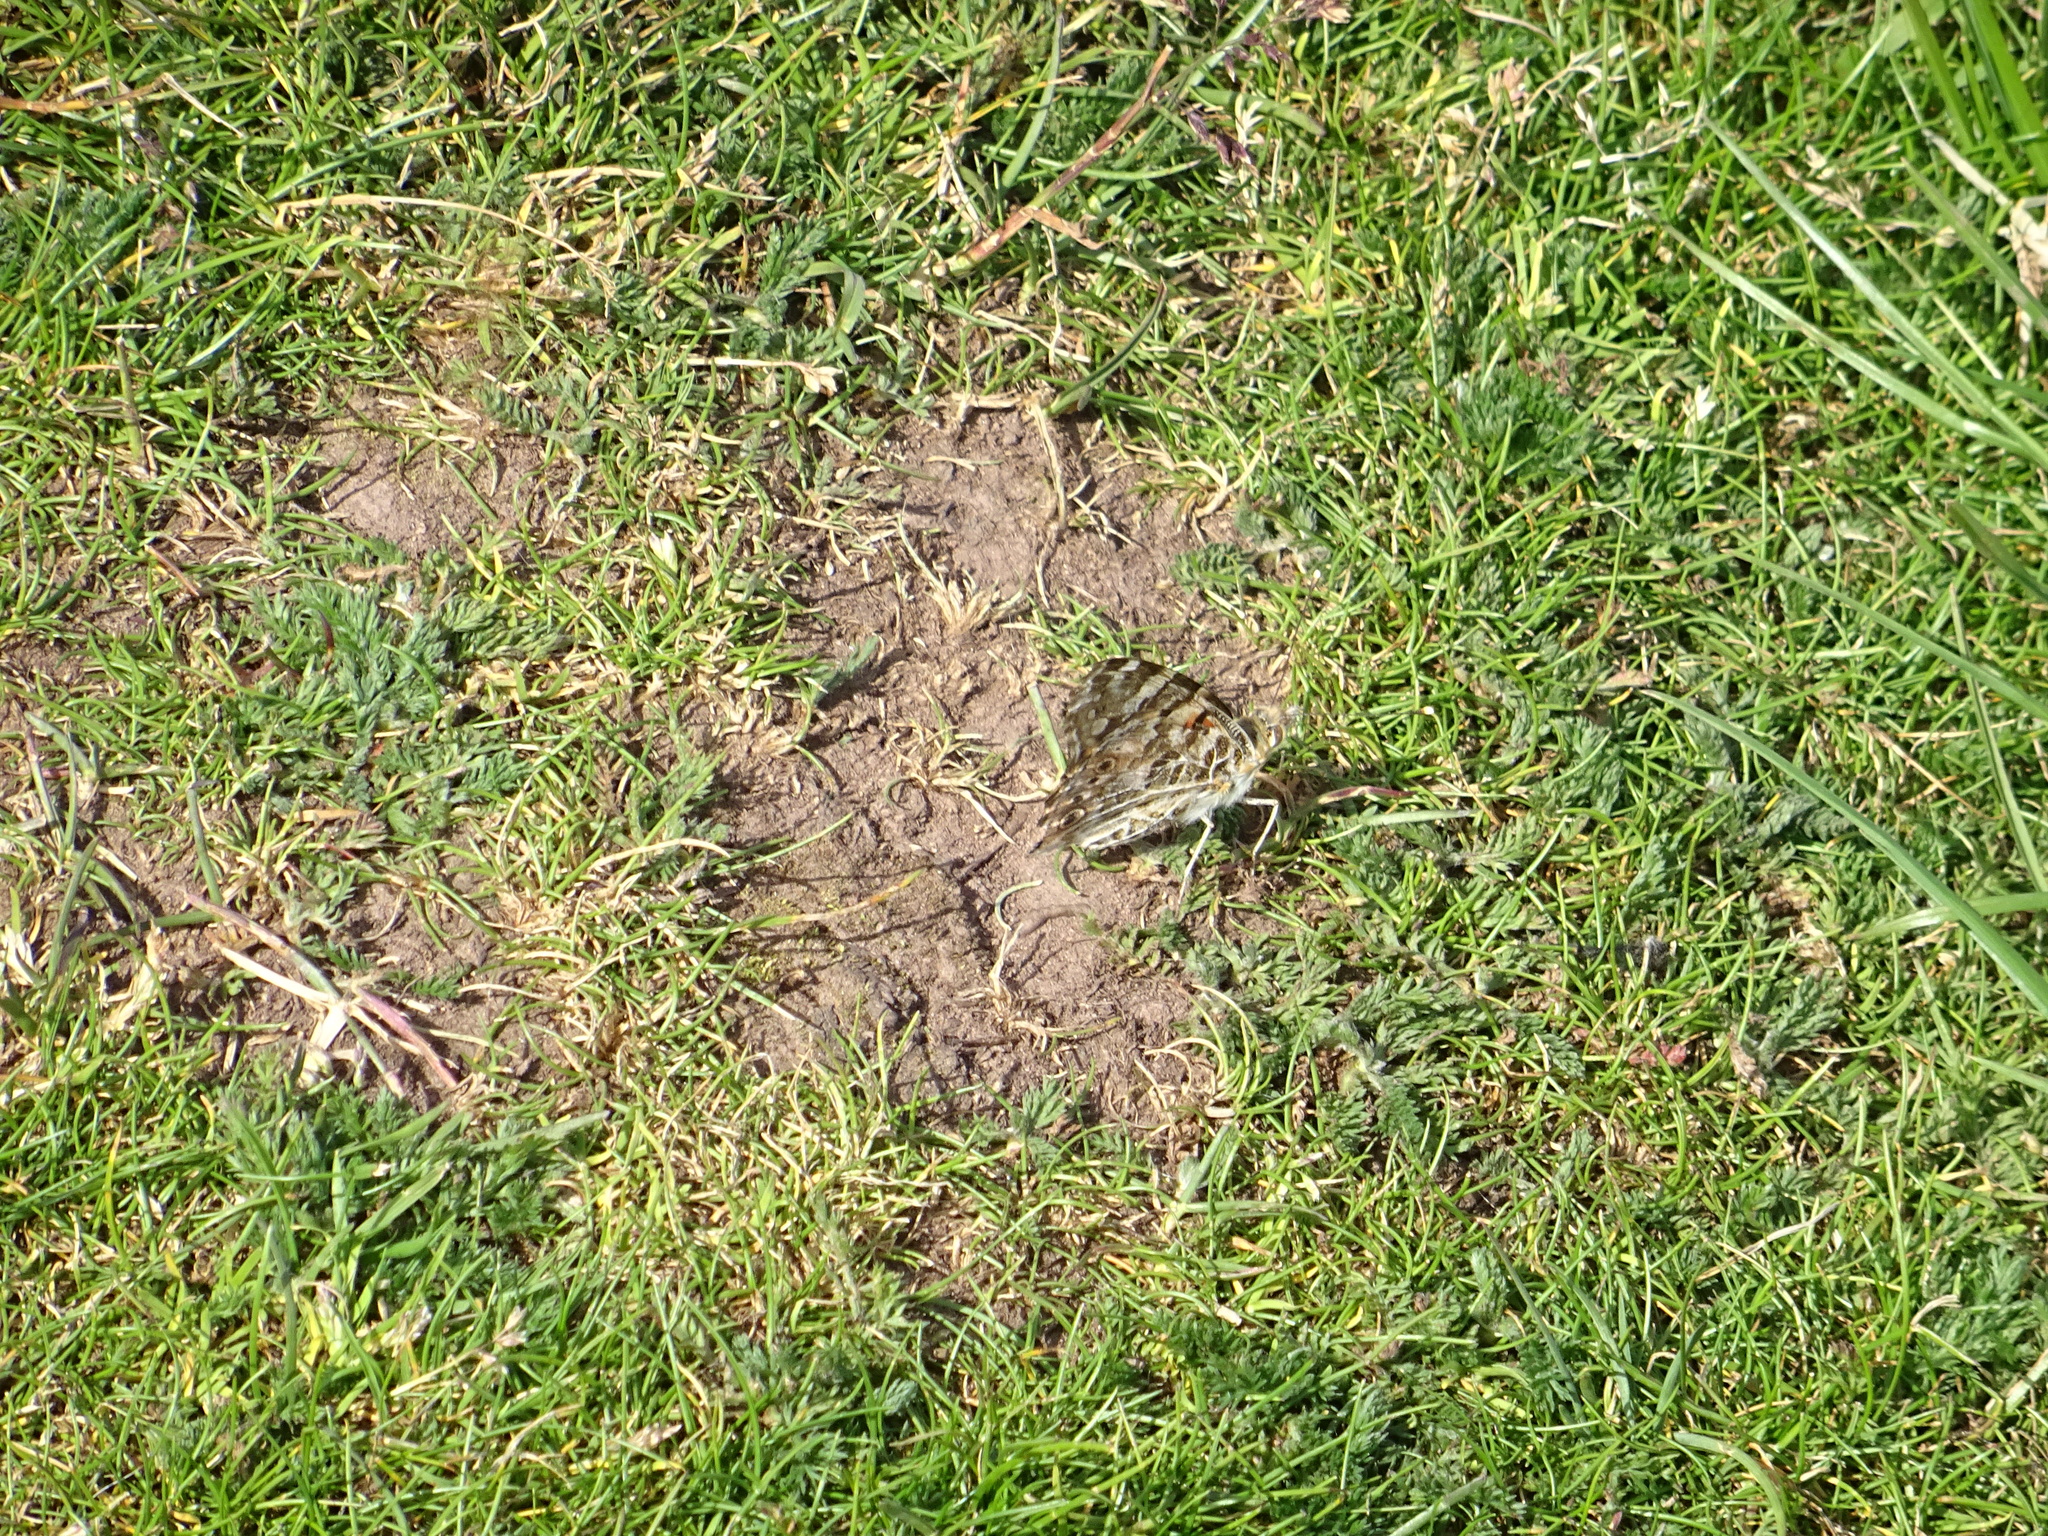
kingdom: Animalia
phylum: Arthropoda
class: Insecta
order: Lepidoptera
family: Nymphalidae
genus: Vanessa
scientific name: Vanessa cardui
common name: Painted lady
